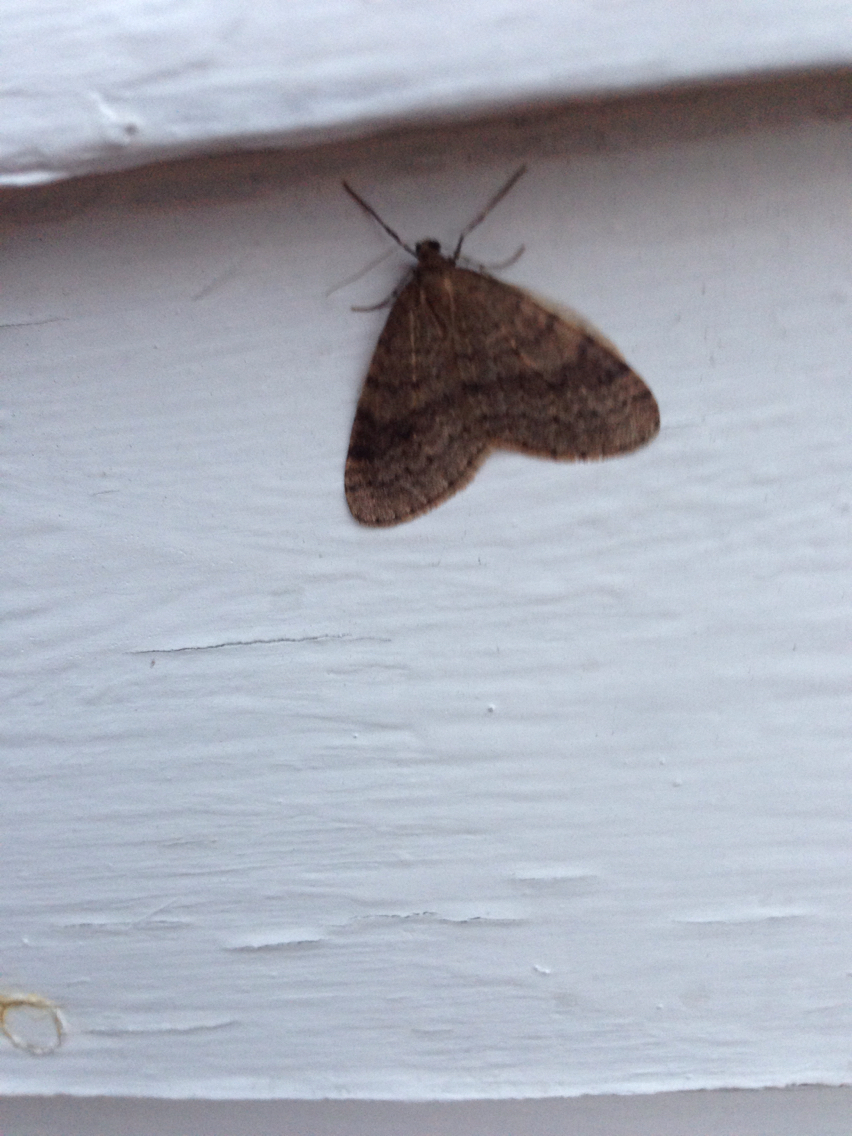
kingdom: Animalia
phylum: Arthropoda
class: Insecta
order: Lepidoptera
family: Geometridae
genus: Operophtera
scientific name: Operophtera bruceata
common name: Bruce spanworm
